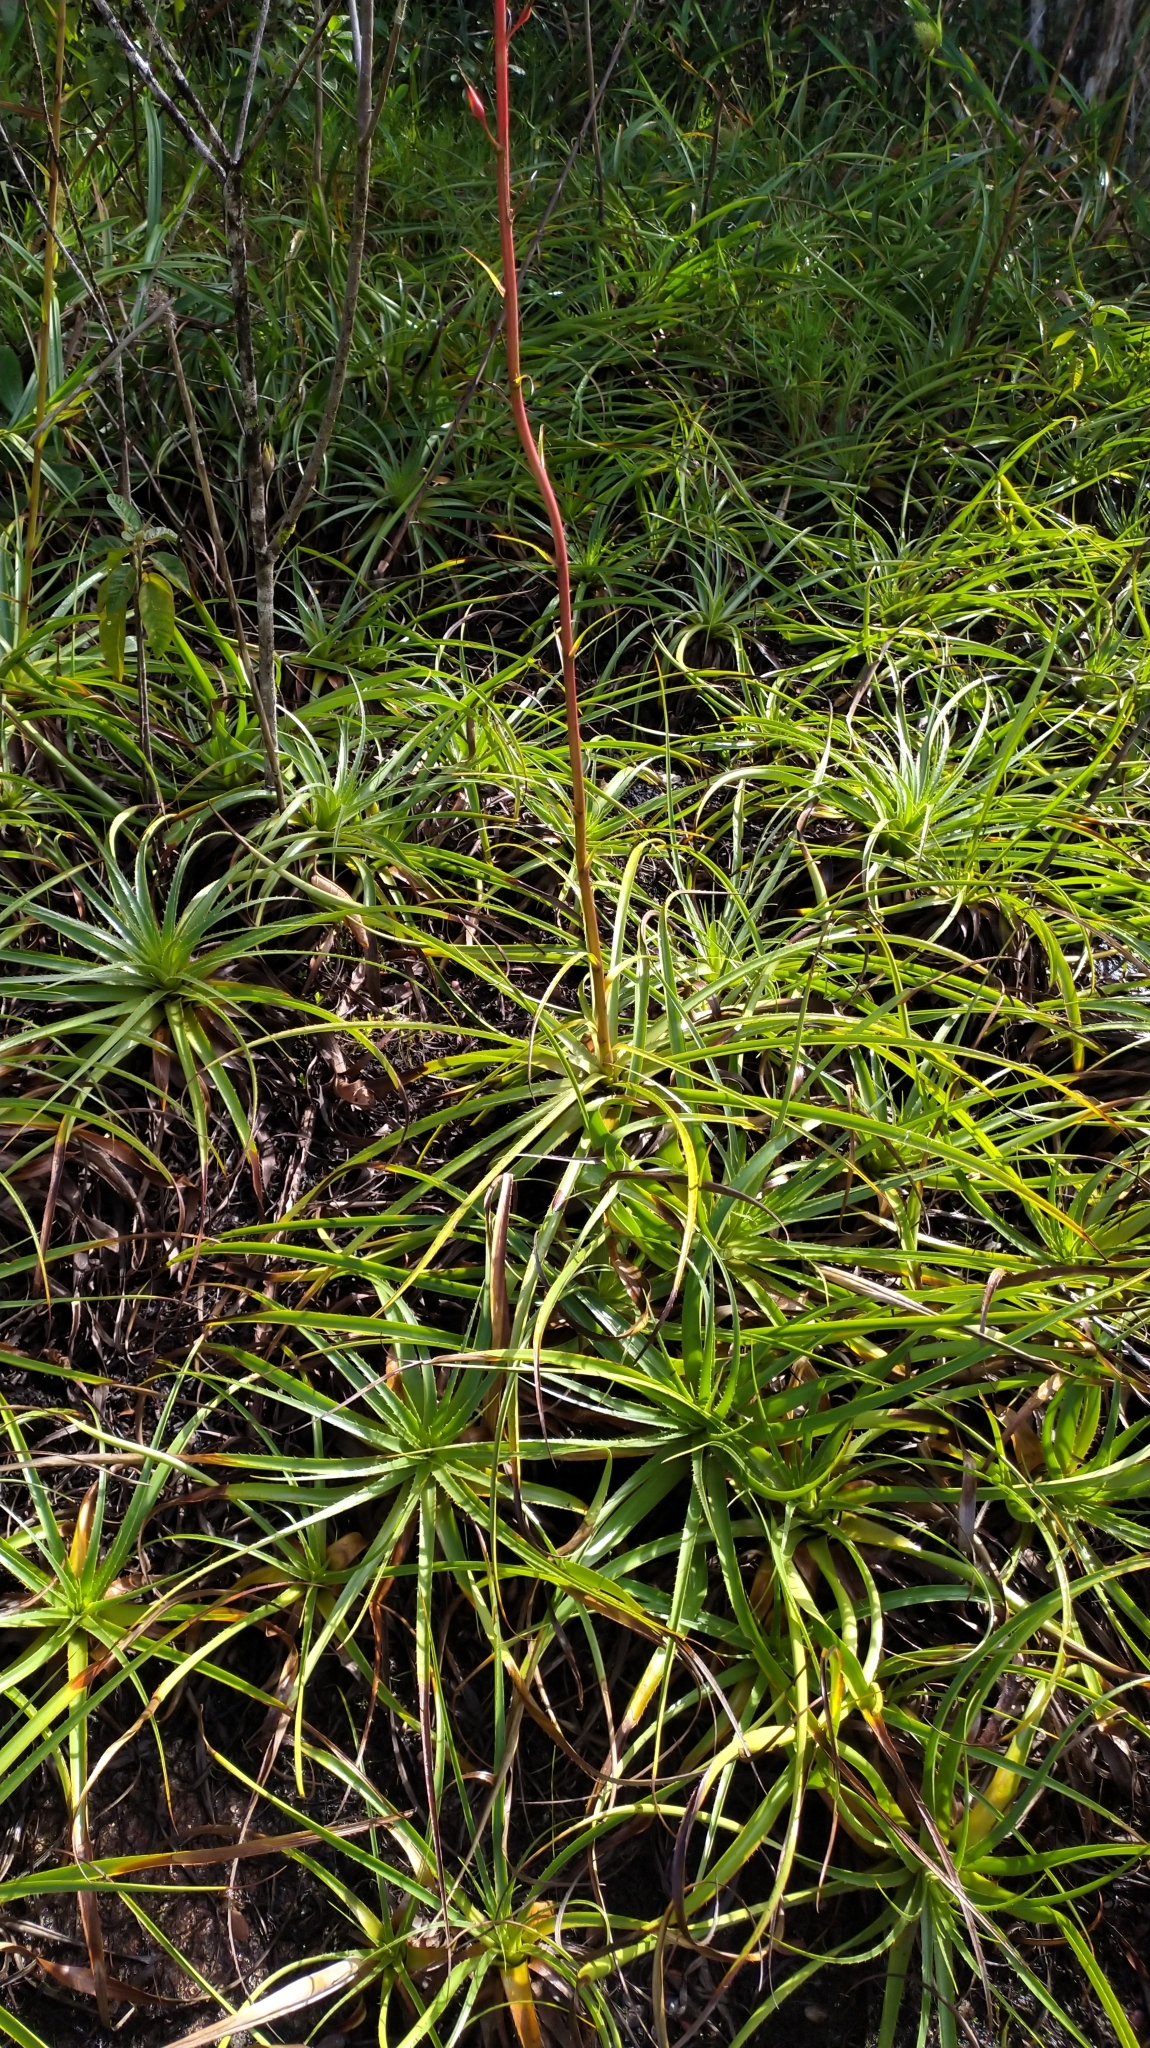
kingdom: Plantae
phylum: Tracheophyta
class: Liliopsida
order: Poales
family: Bromeliaceae
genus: Pitcairnia
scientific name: Pitcairnia cremersii
